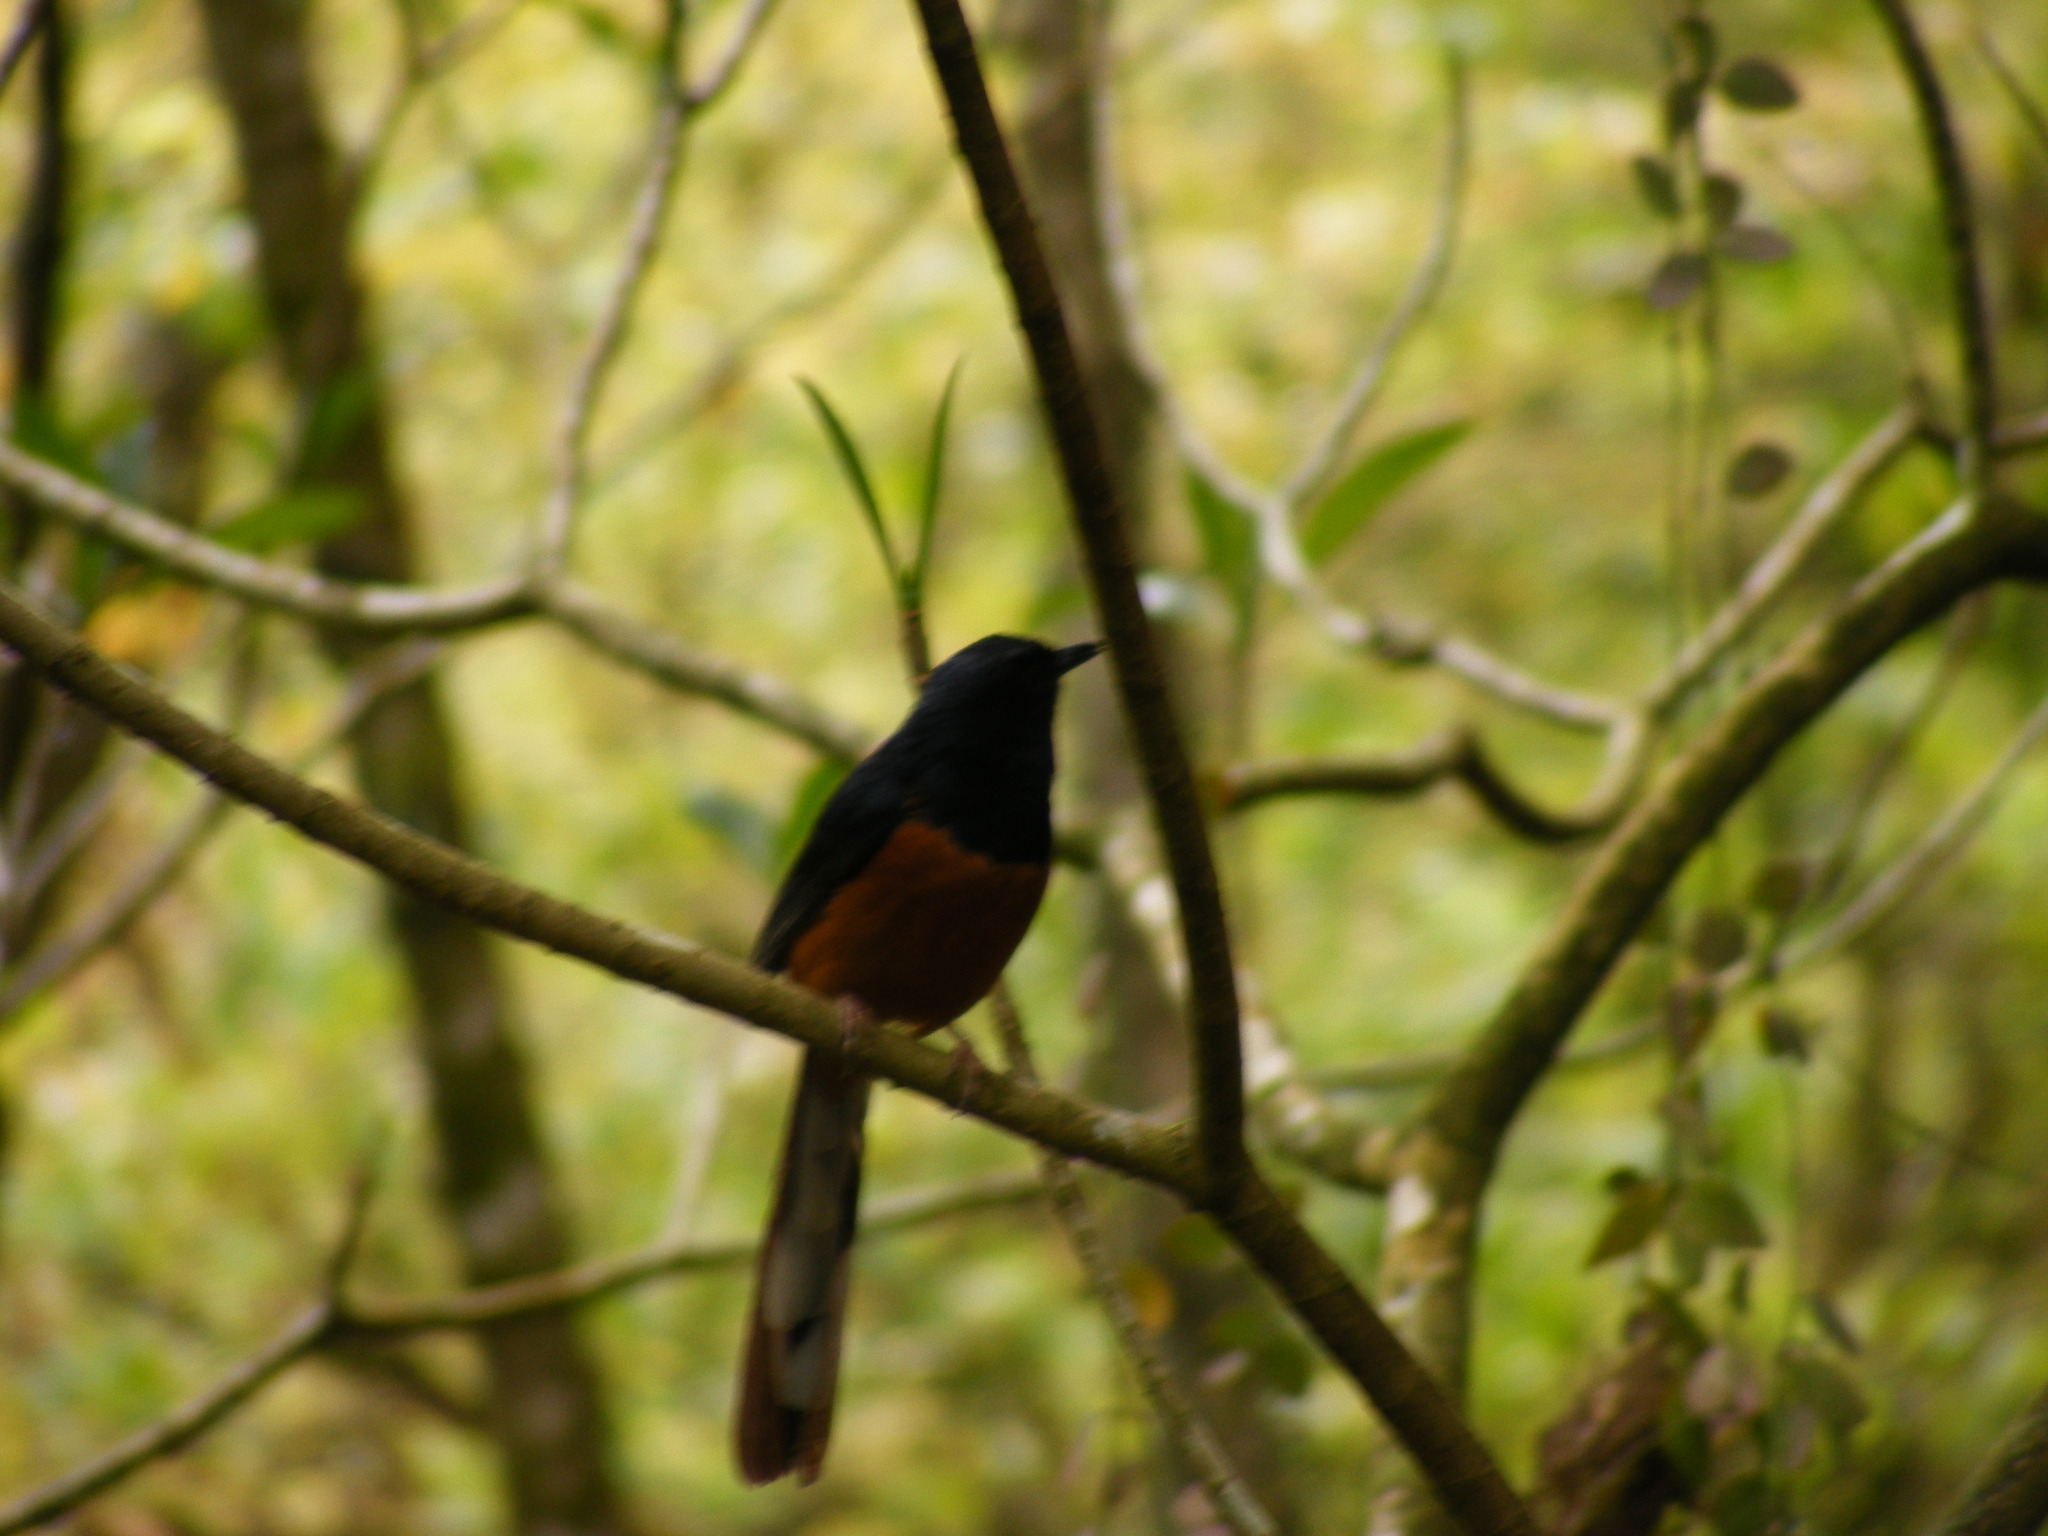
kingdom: Animalia
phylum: Chordata
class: Aves
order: Passeriformes
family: Muscicapidae
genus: Copsychus
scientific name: Copsychus malabaricus
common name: White-rumped shama
